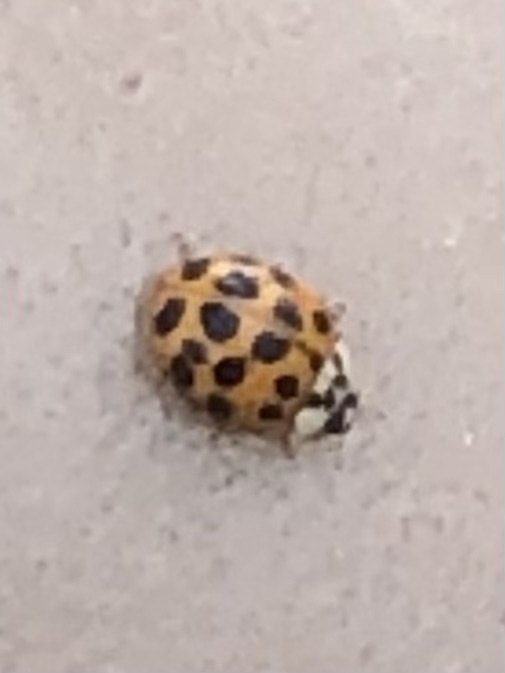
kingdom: Animalia
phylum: Arthropoda
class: Insecta
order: Coleoptera
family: Coccinellidae
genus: Harmonia
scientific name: Harmonia axyridis
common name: Harlequin ladybird
